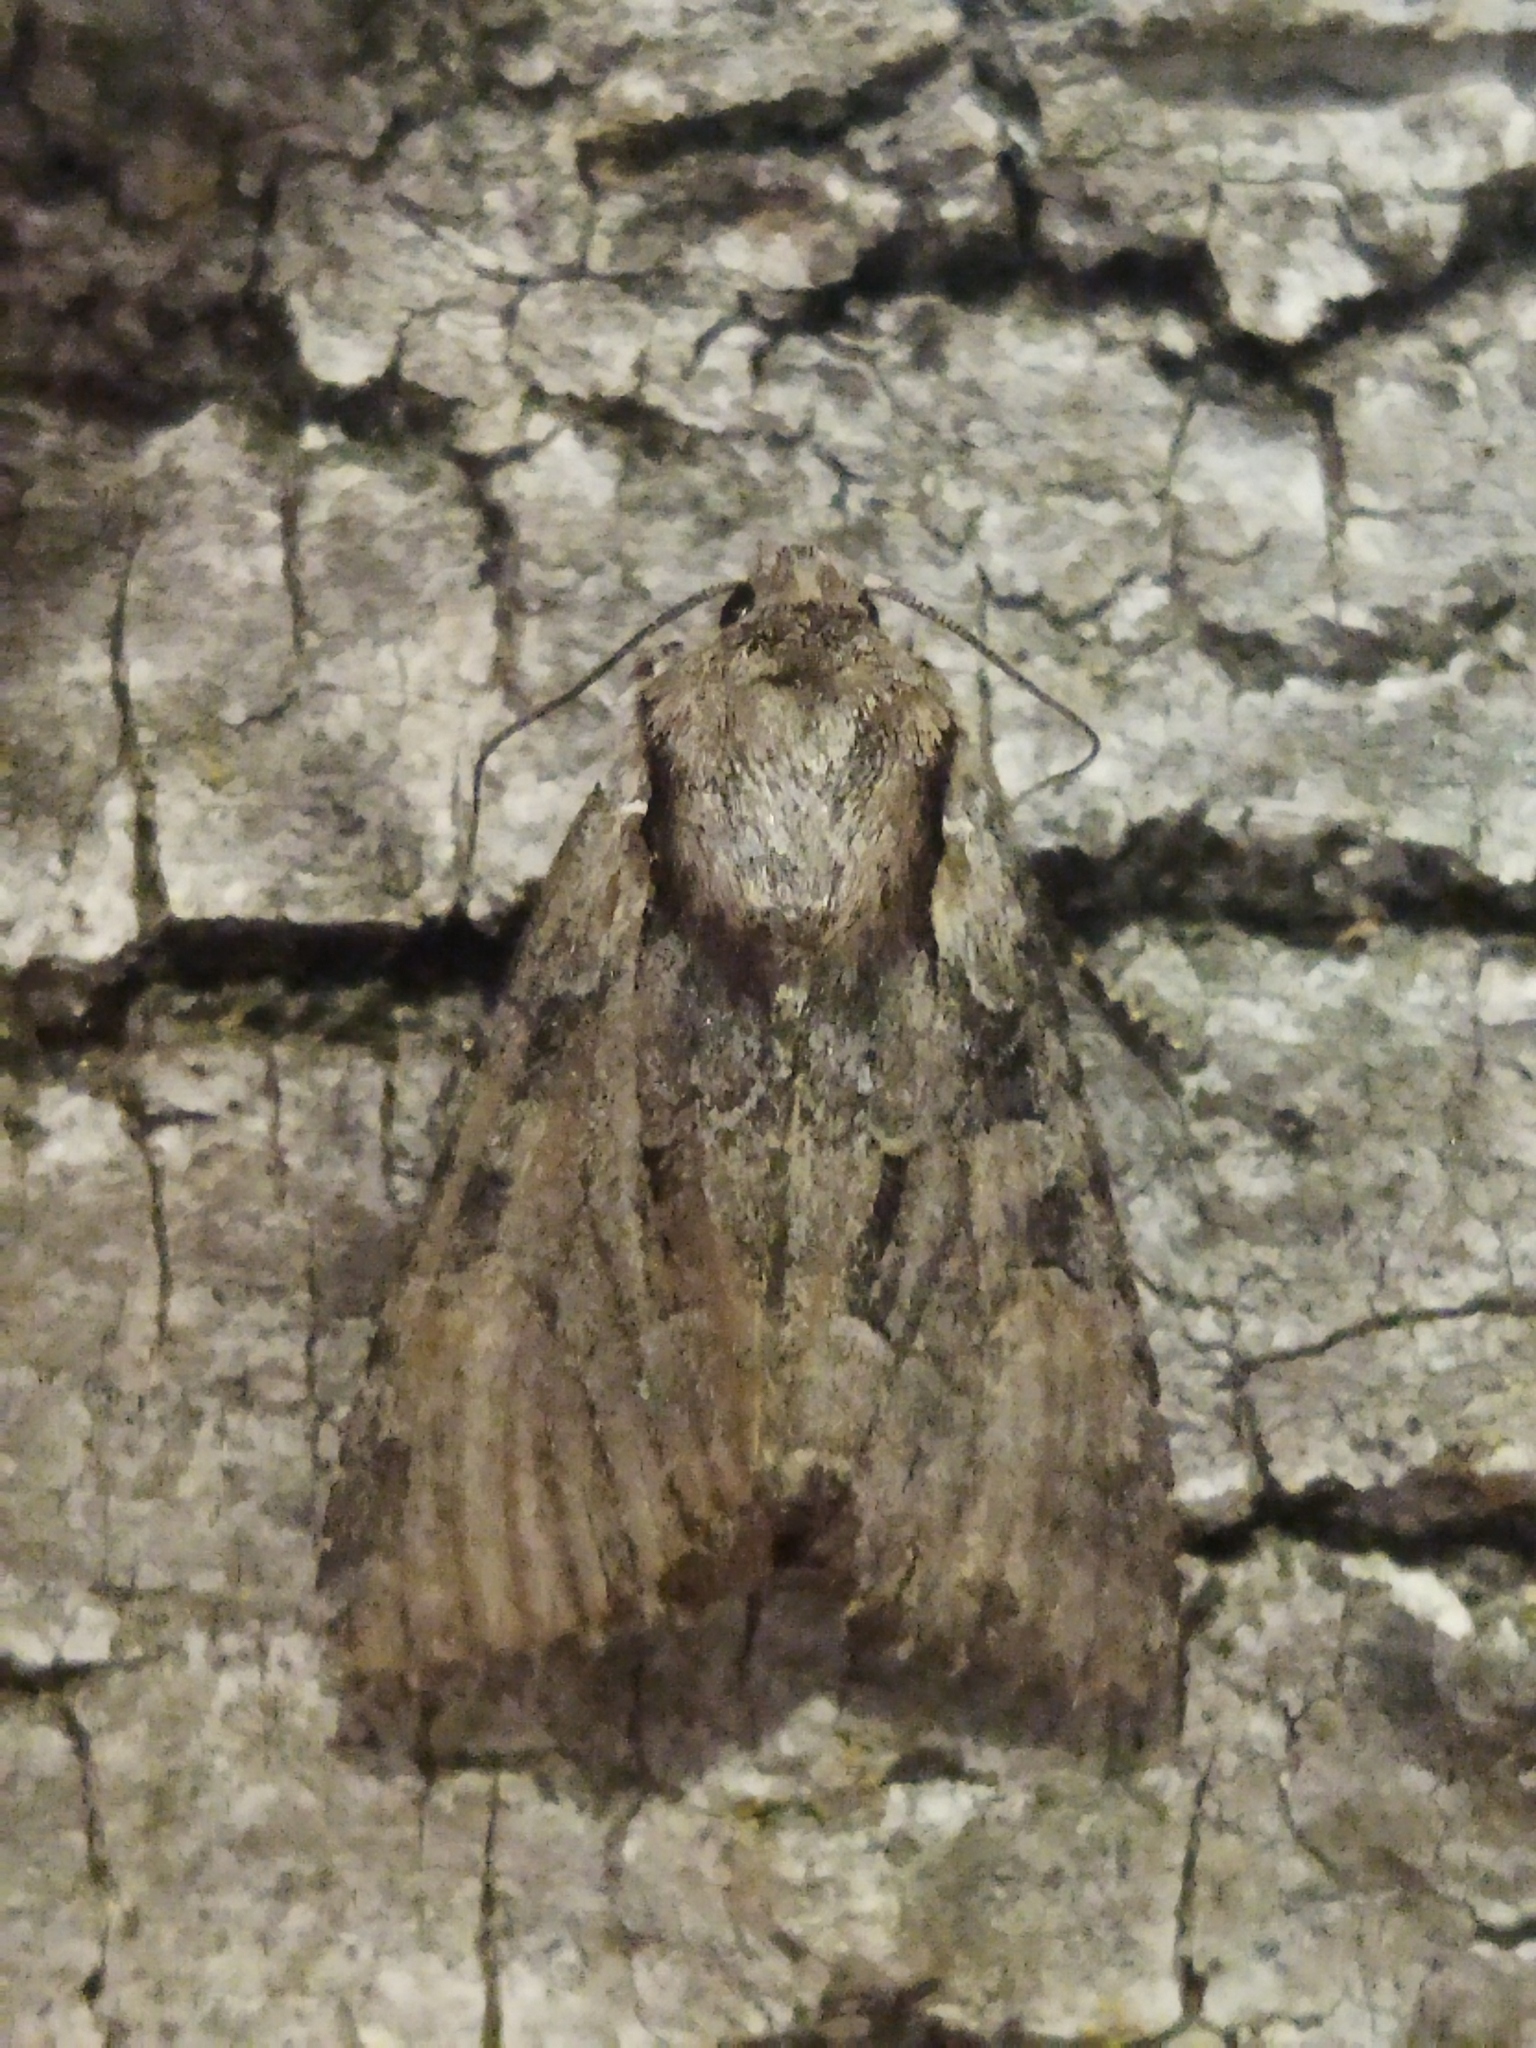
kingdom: Animalia
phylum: Arthropoda
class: Insecta
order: Lepidoptera
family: Noctuidae
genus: Lacanobia
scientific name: Lacanobia w-latinum
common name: Light brocade
